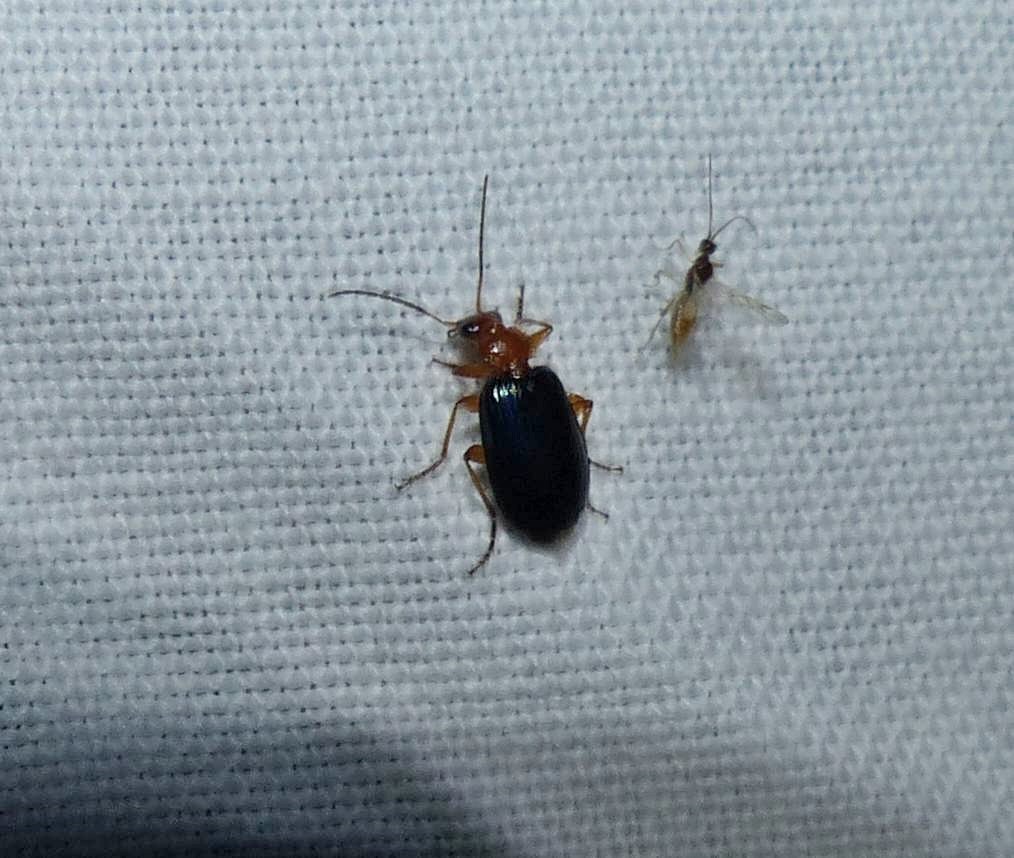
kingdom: Animalia
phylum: Arthropoda
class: Insecta
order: Coleoptera
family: Carabidae
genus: Lebia
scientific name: Lebia grandis
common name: Large foliage ground beetle
